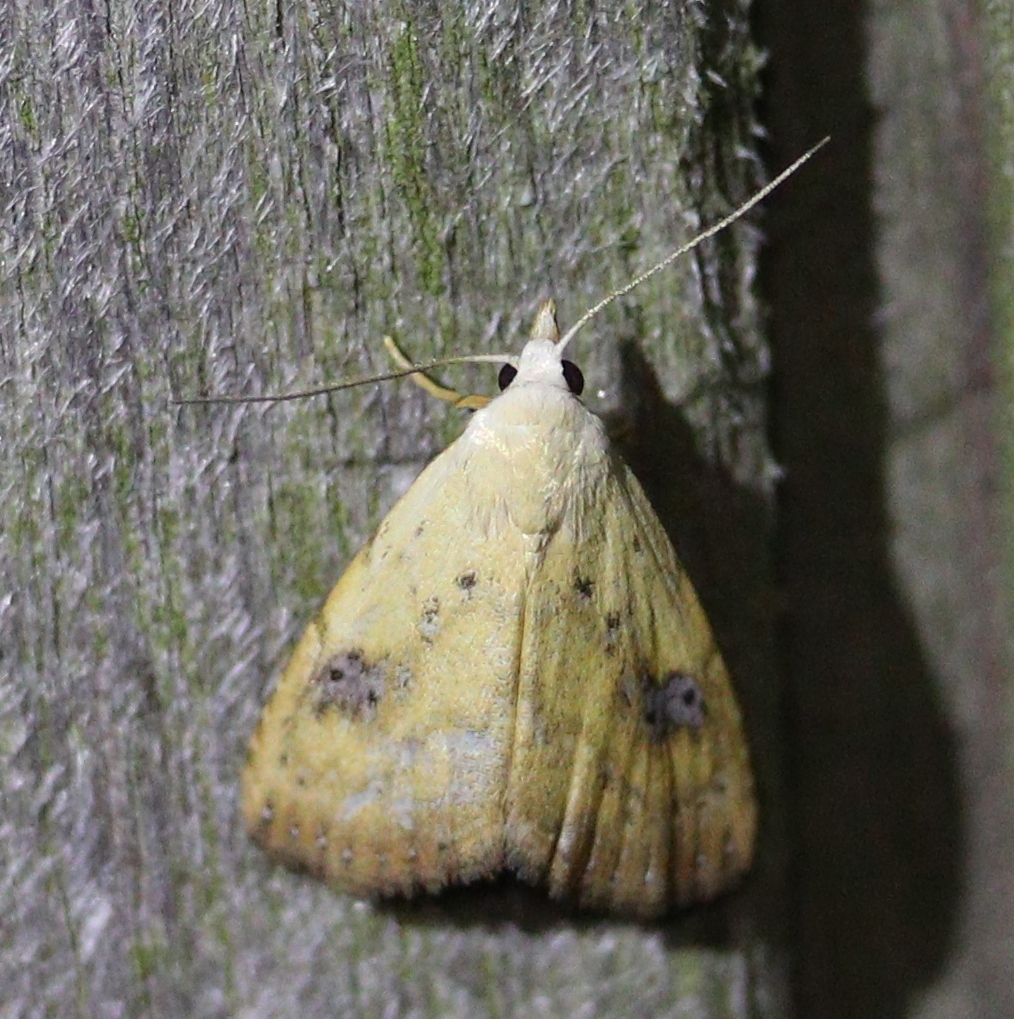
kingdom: Animalia
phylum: Arthropoda
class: Insecta
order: Lepidoptera
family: Erebidae
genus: Rivula
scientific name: Rivula sericealis
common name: Straw dot
